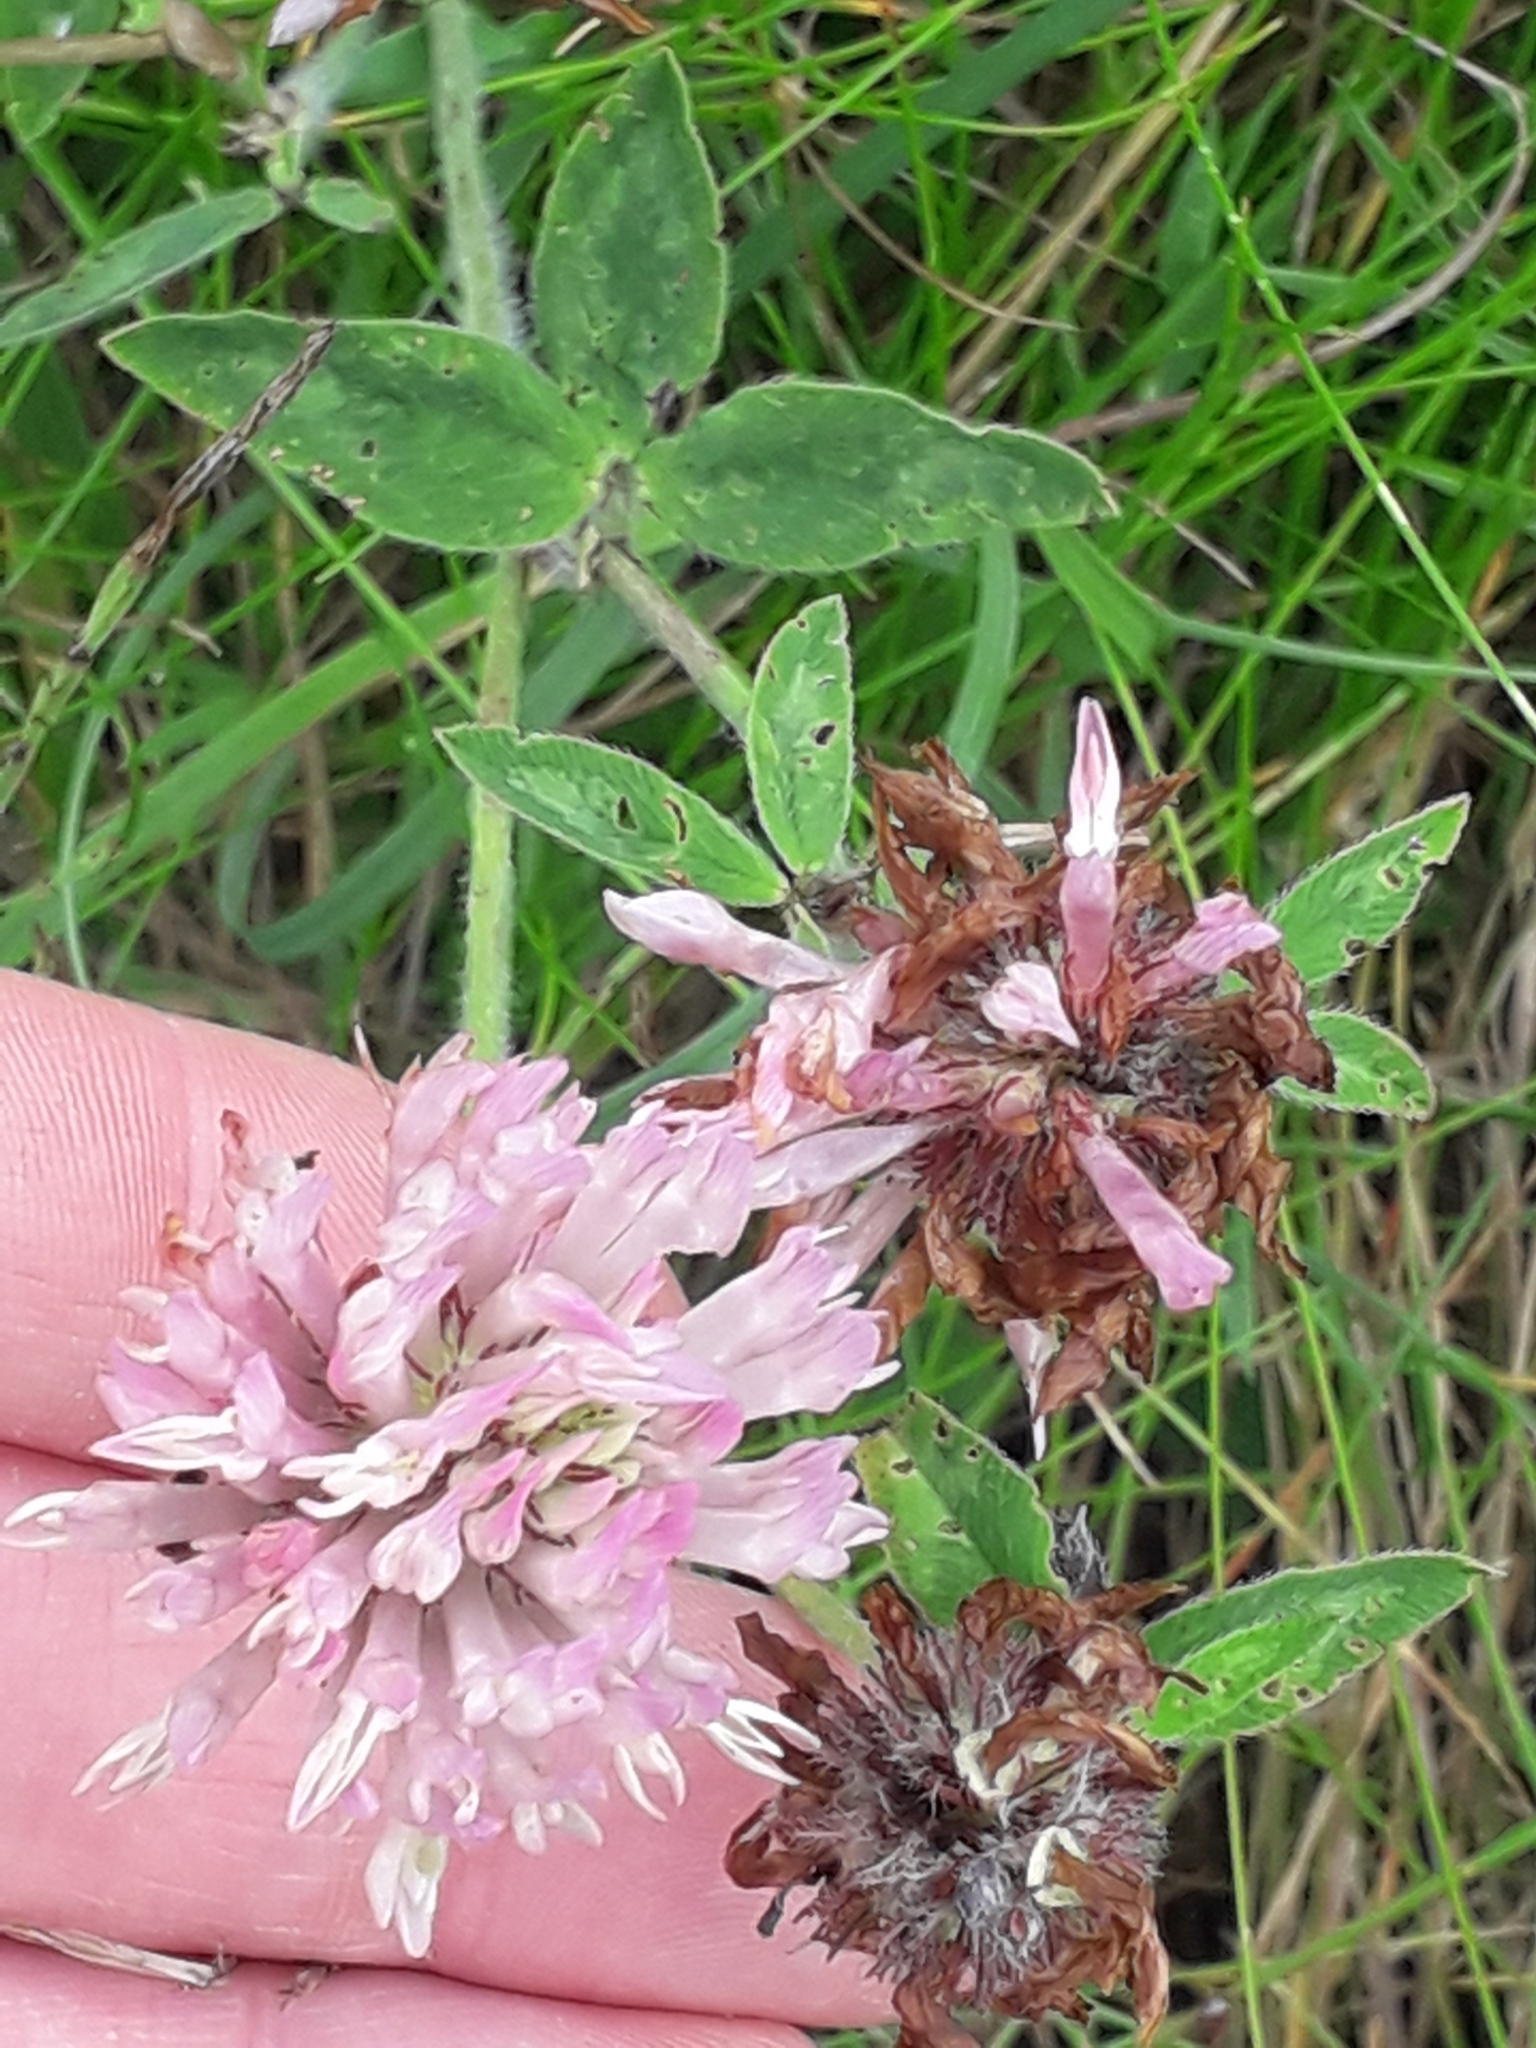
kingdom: Plantae
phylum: Tracheophyta
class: Magnoliopsida
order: Fabales
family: Fabaceae
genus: Trifolium
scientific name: Trifolium pratense
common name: Red clover
